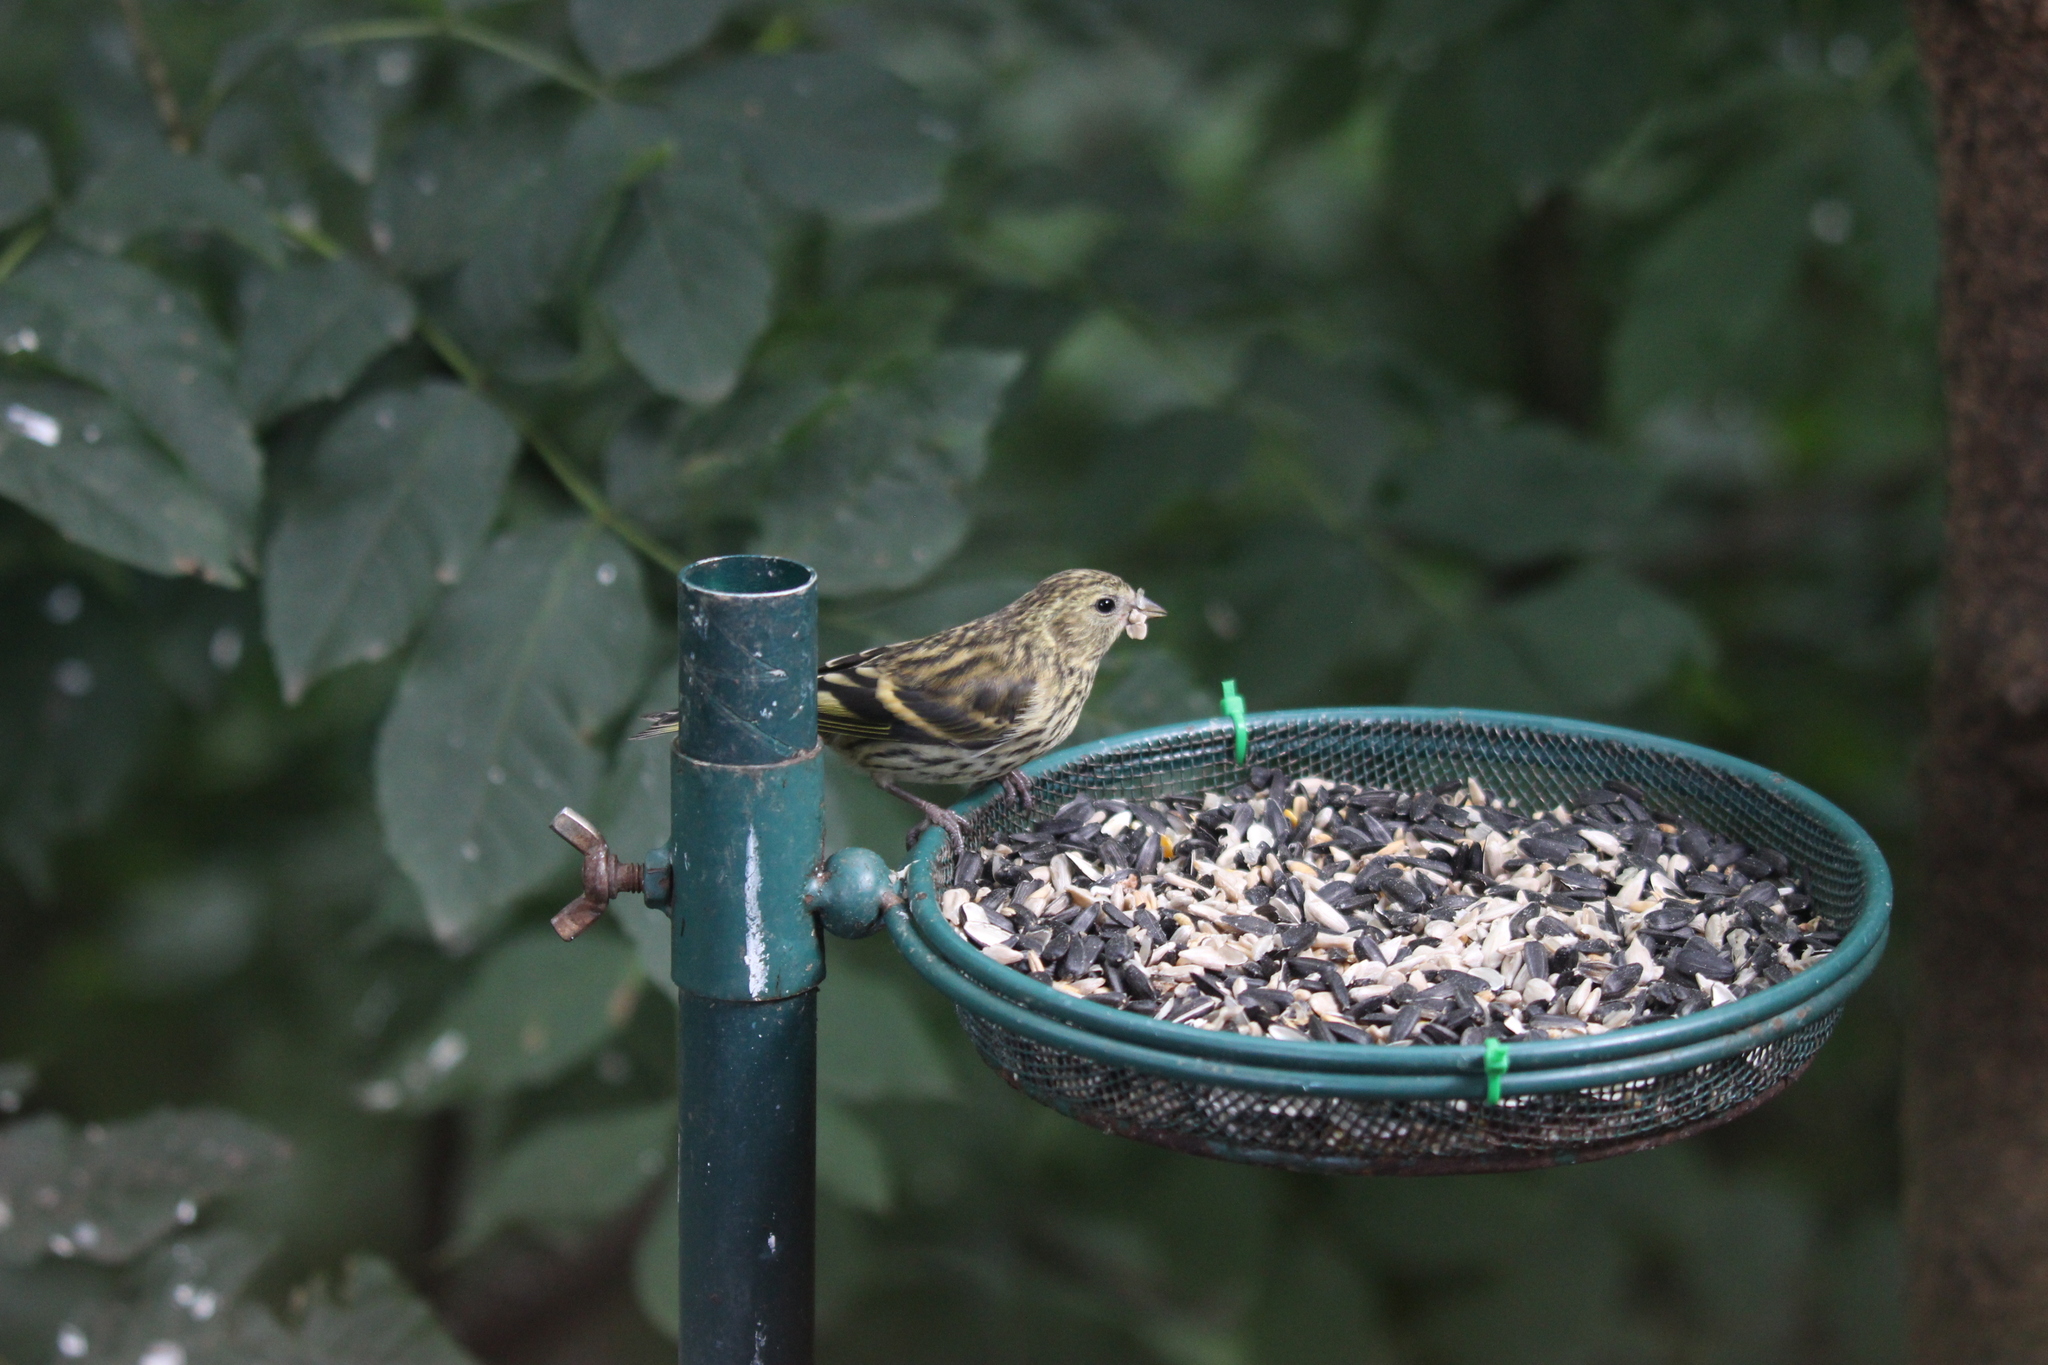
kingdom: Animalia
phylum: Chordata
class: Aves
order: Passeriformes
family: Fringillidae
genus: Spinus
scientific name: Spinus spinus
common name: Eurasian siskin
